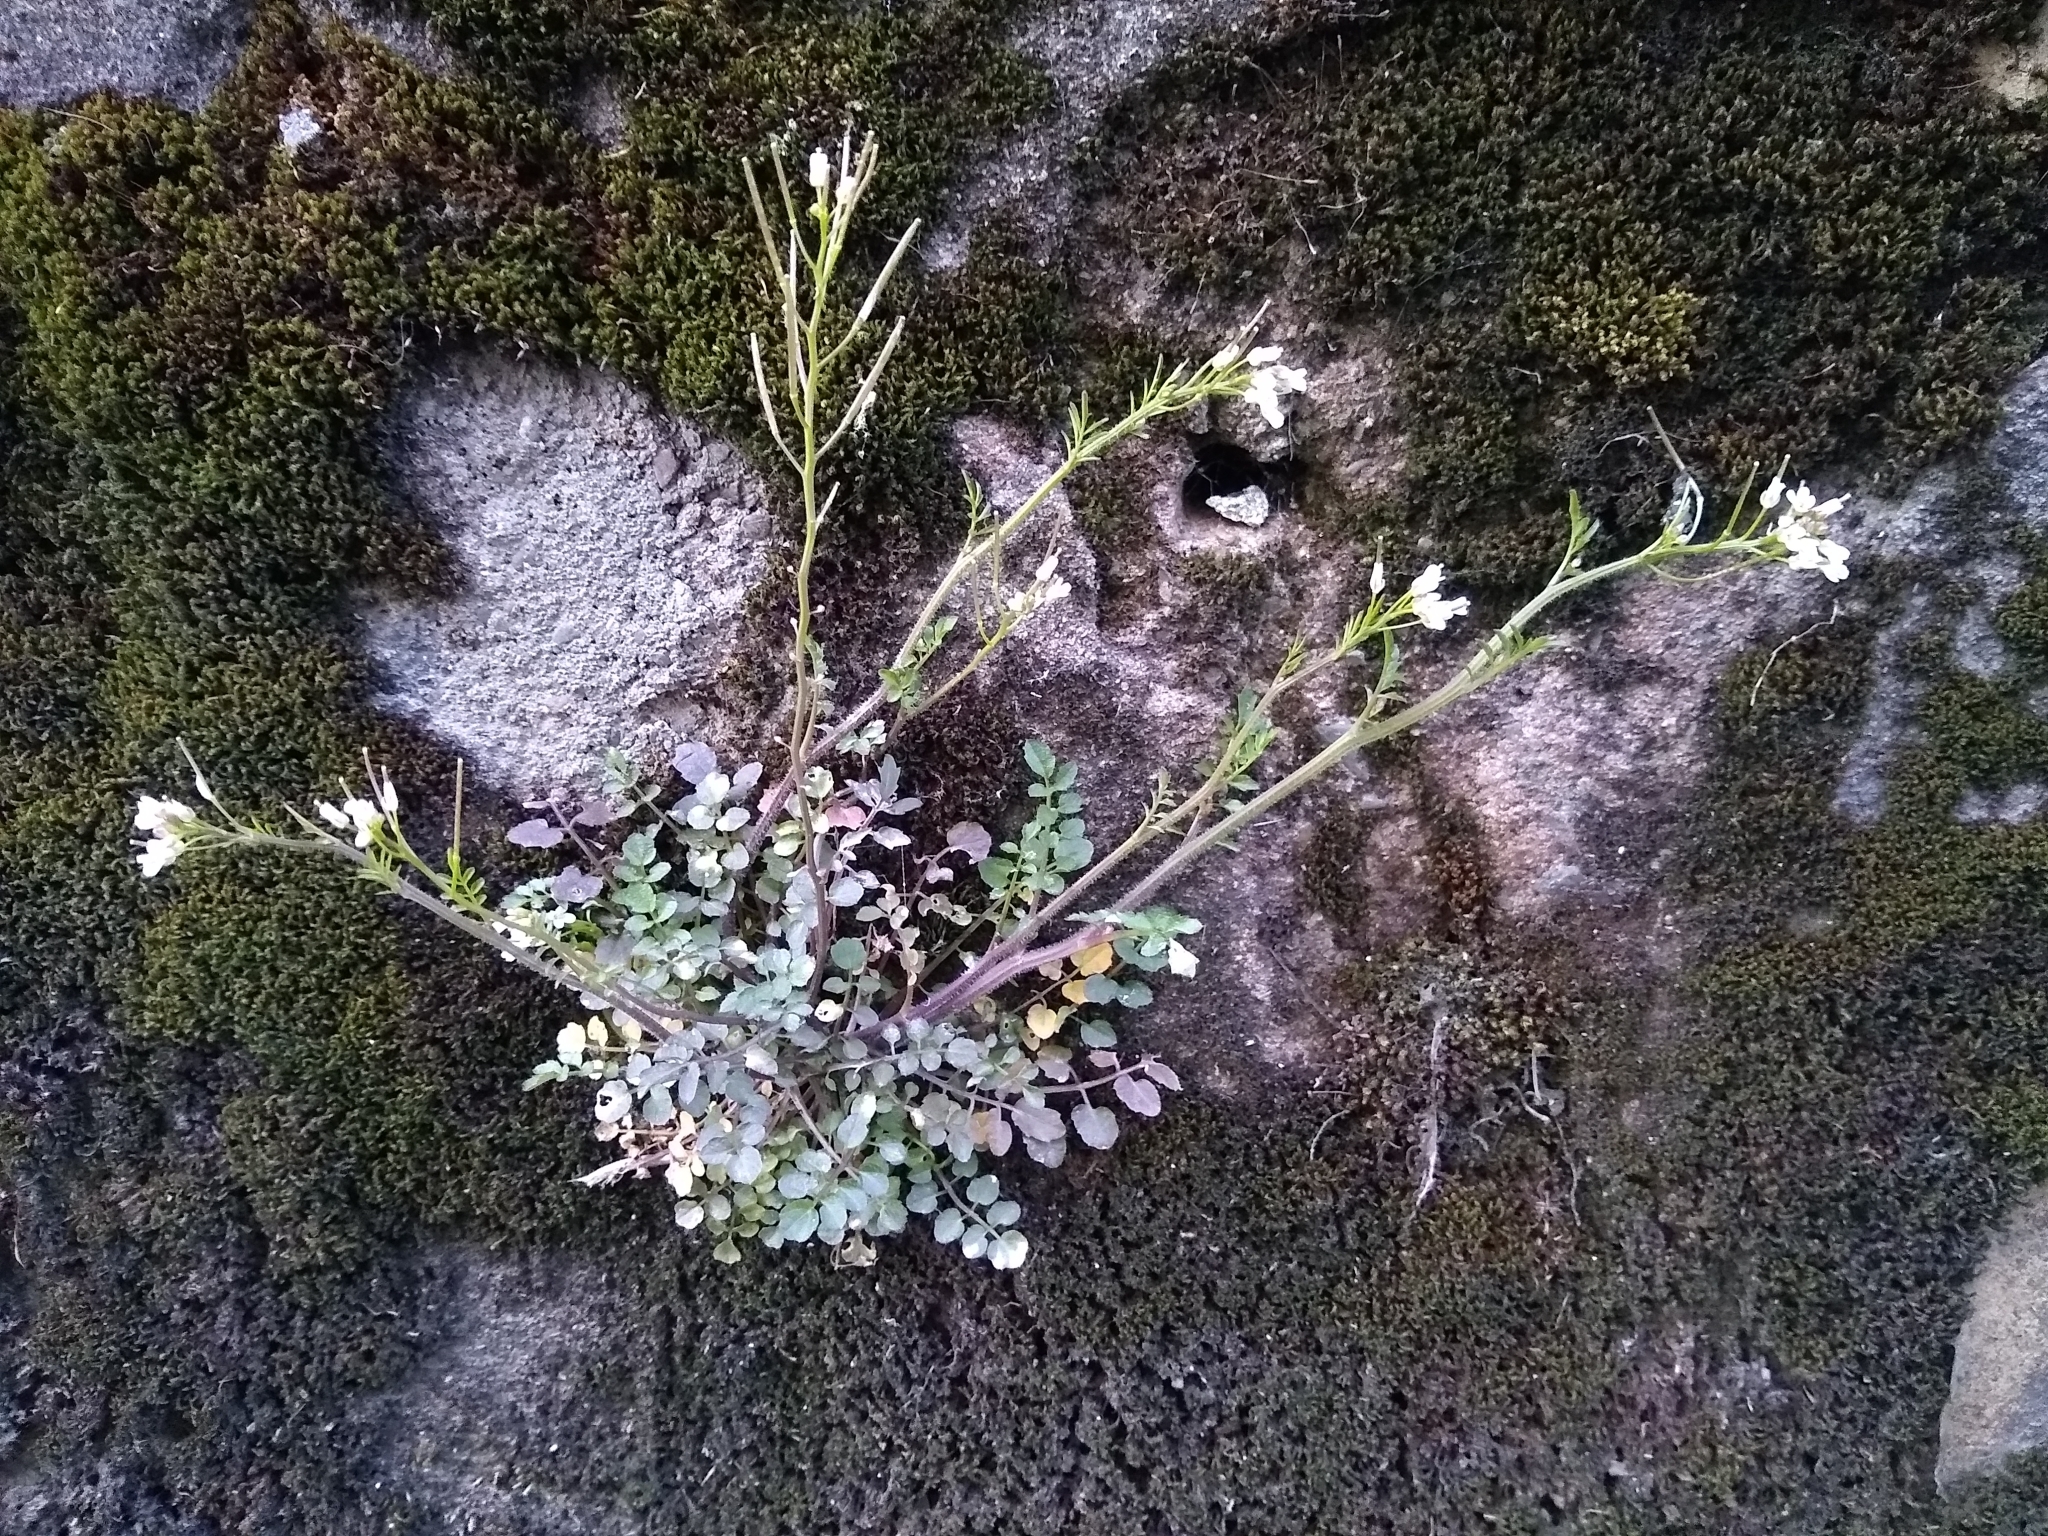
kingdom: Plantae
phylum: Tracheophyta
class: Magnoliopsida
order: Brassicales
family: Brassicaceae
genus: Cardamine
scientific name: Cardamine flexuosa
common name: Woodland bittercress
